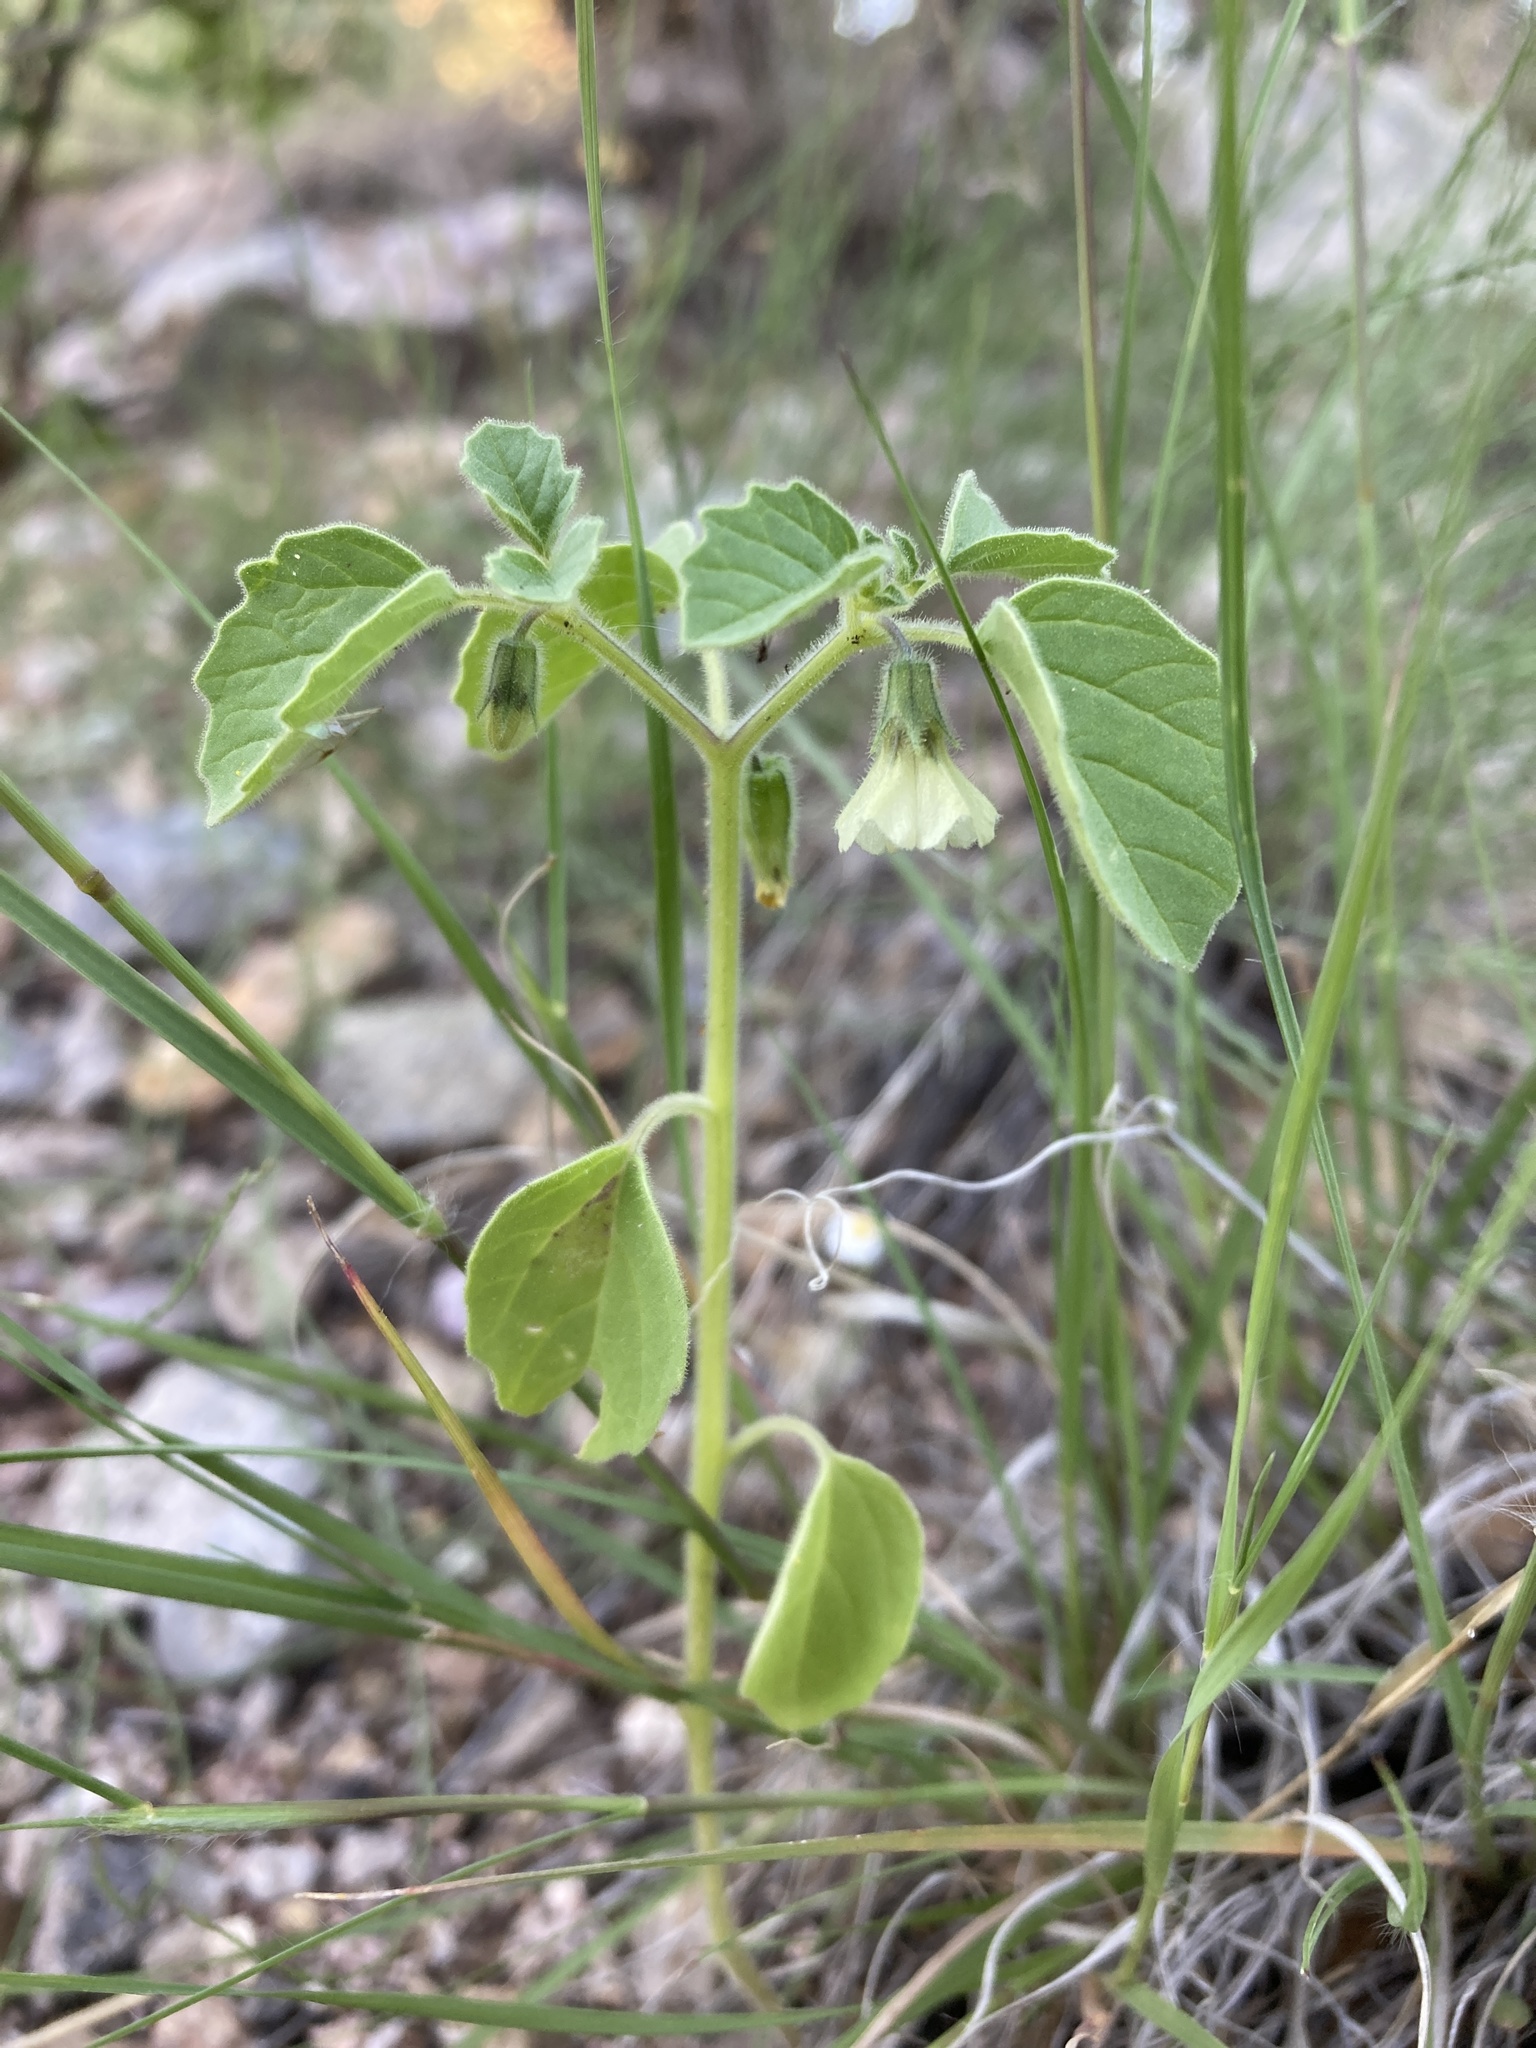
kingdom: Plantae
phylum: Tracheophyta
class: Magnoliopsida
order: Solanales
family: Solanaceae
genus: Physalis
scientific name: Physalis neomexicana
